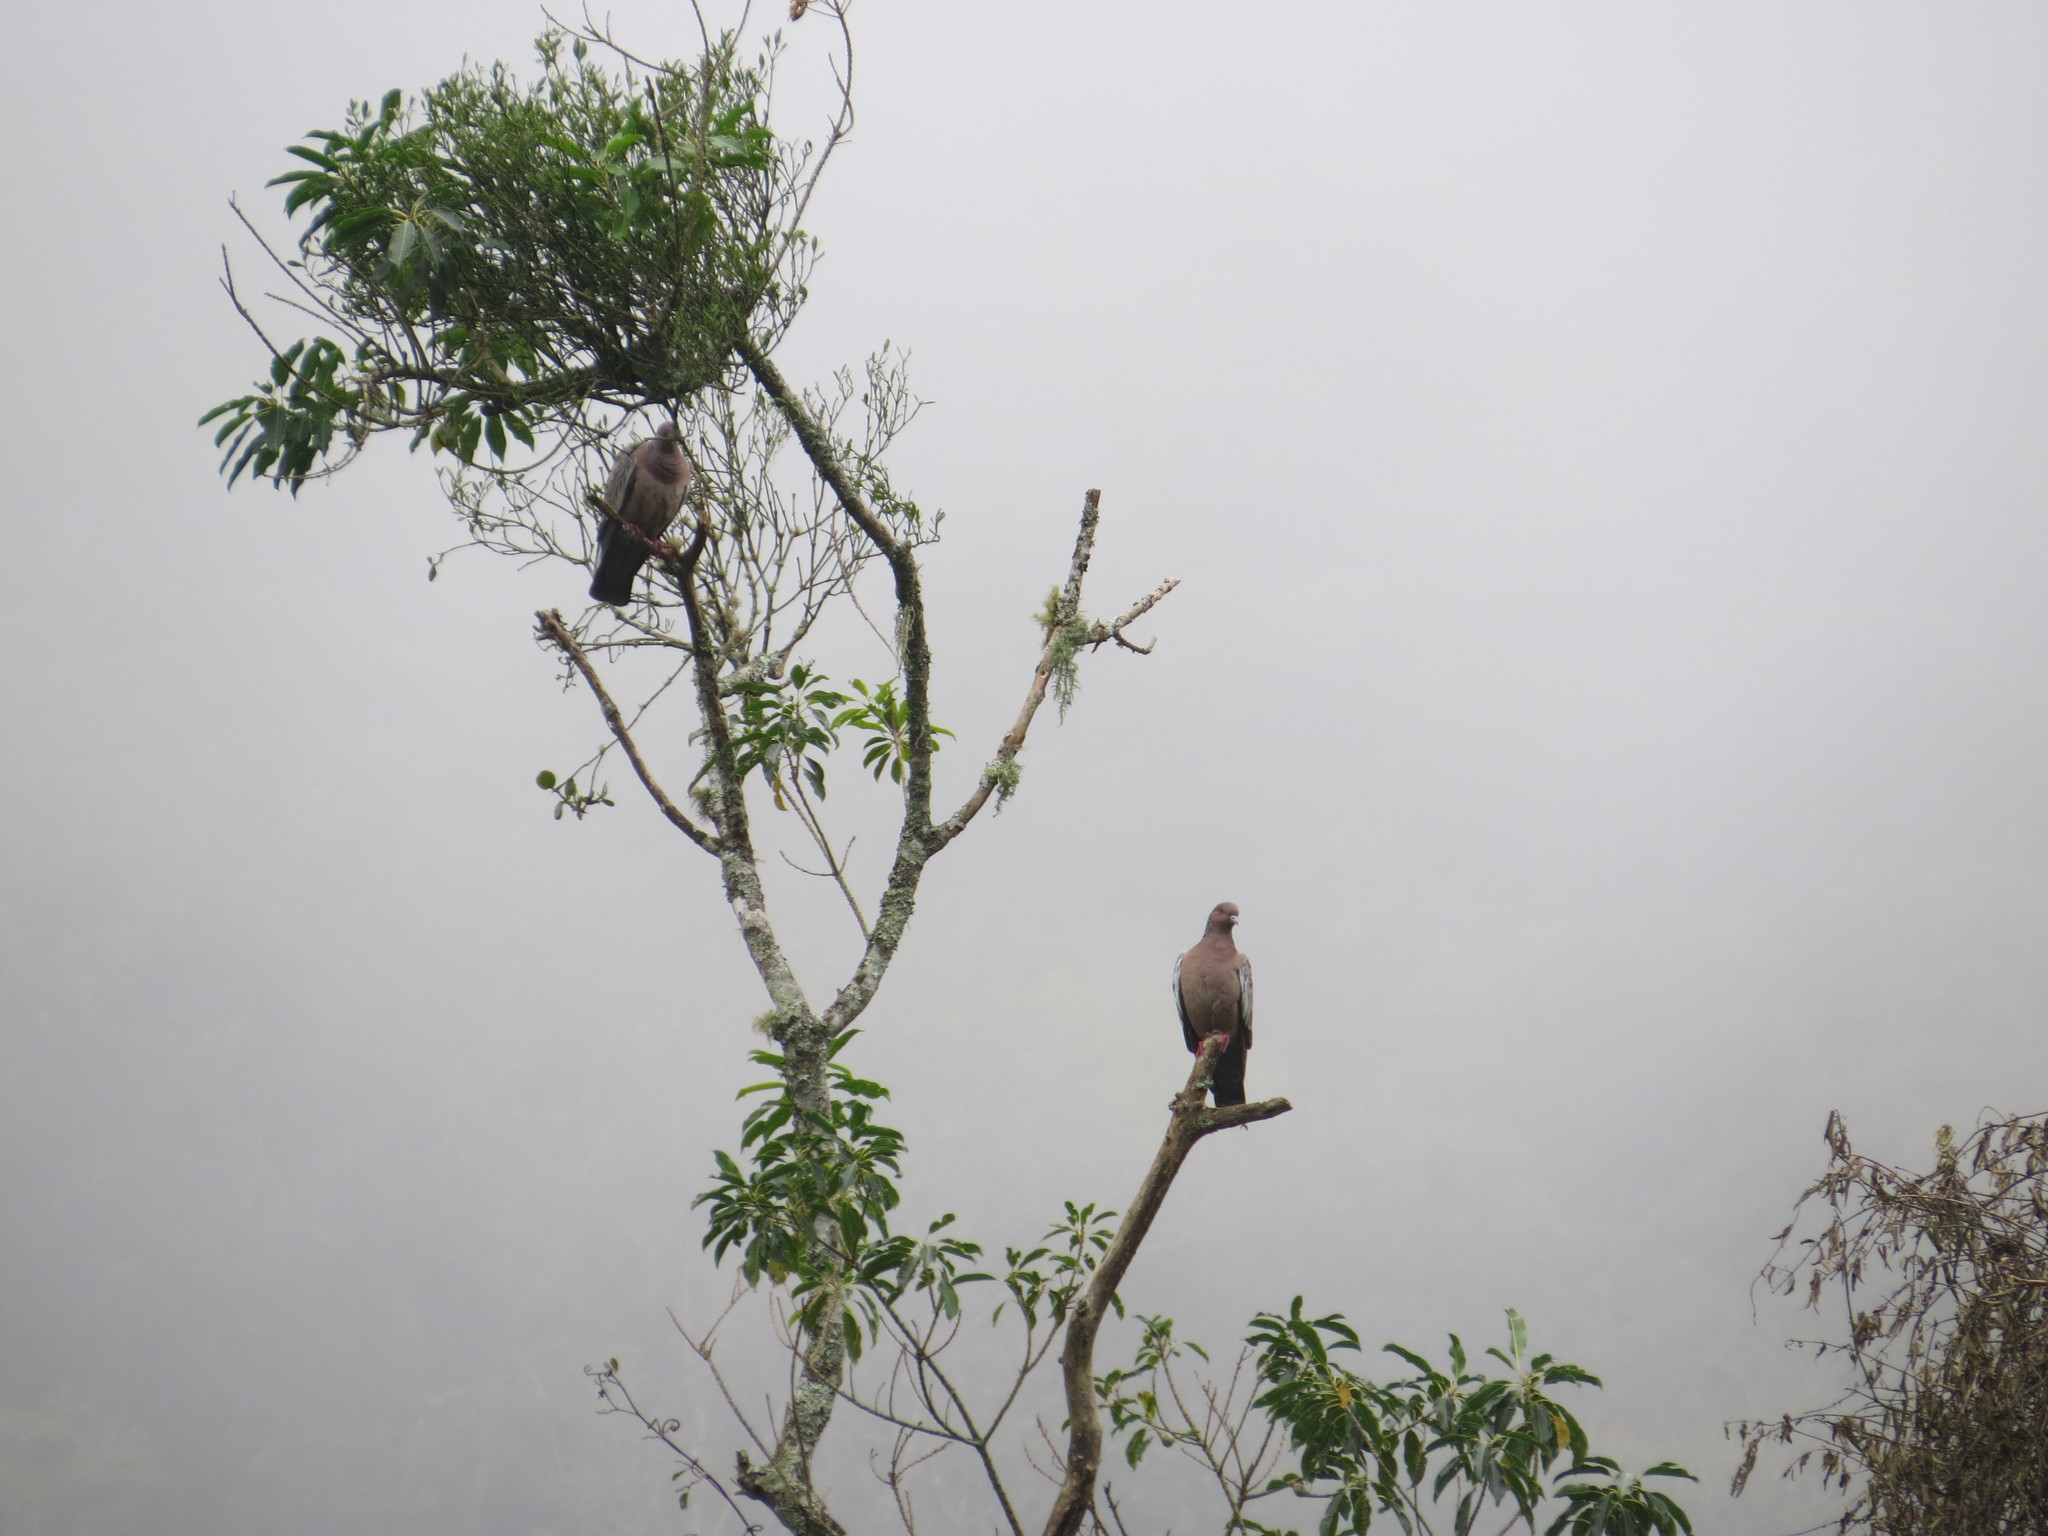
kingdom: Animalia
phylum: Chordata
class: Aves
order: Columbiformes
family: Columbidae
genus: Patagioenas
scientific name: Patagioenas picazuro
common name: Picazuro pigeon
